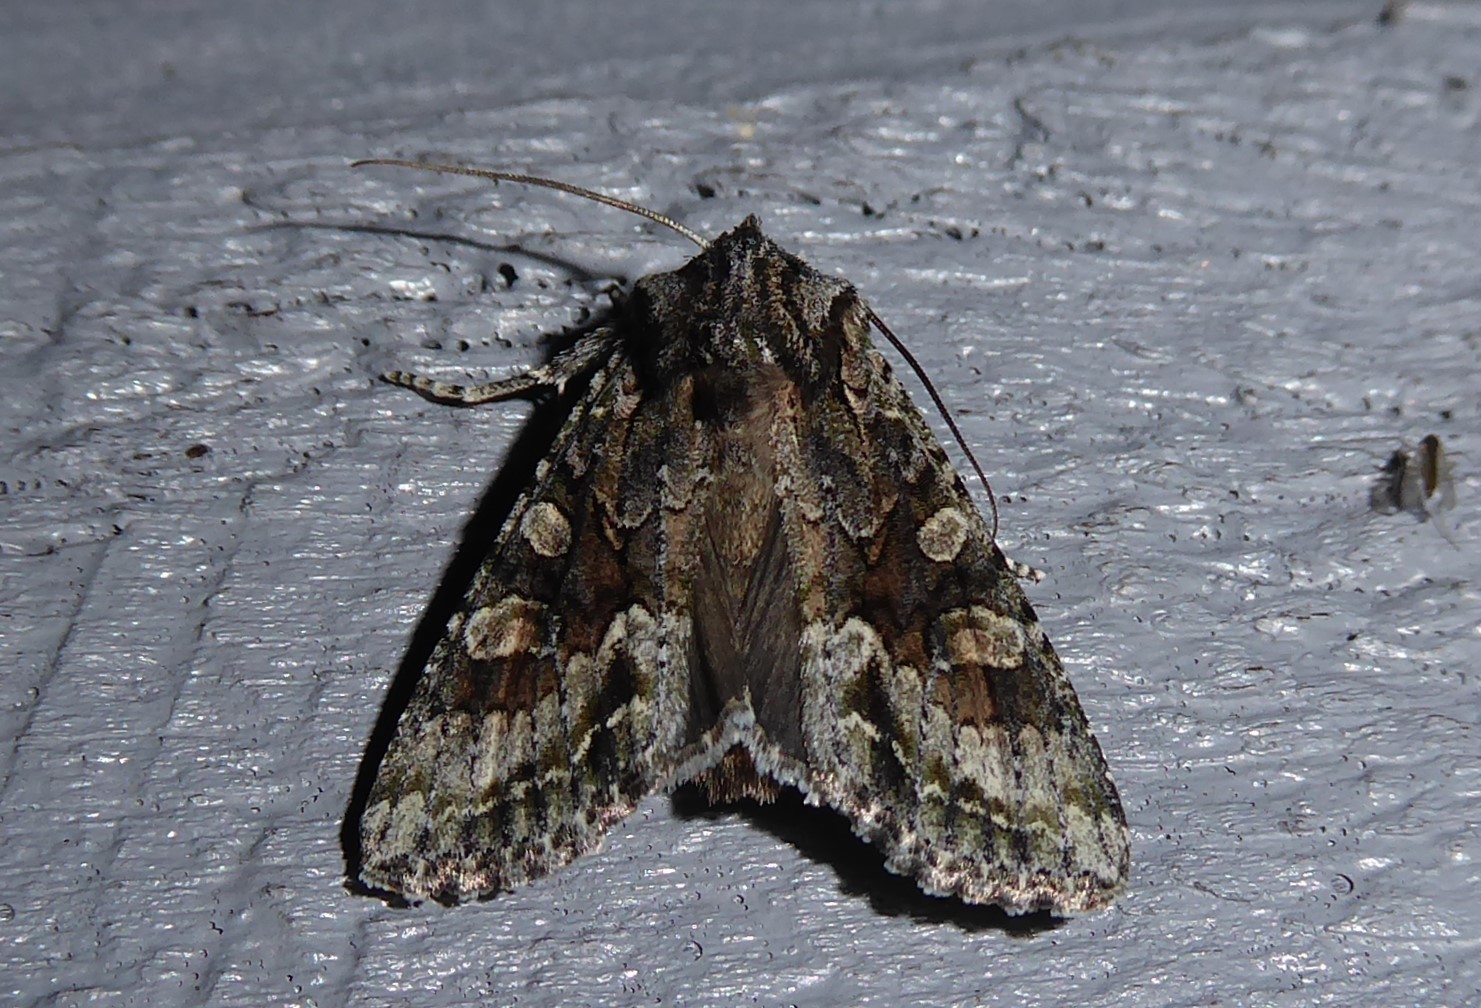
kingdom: Animalia
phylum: Arthropoda
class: Insecta
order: Lepidoptera
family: Noctuidae
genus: Ichneutica
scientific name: Ichneutica mutans
